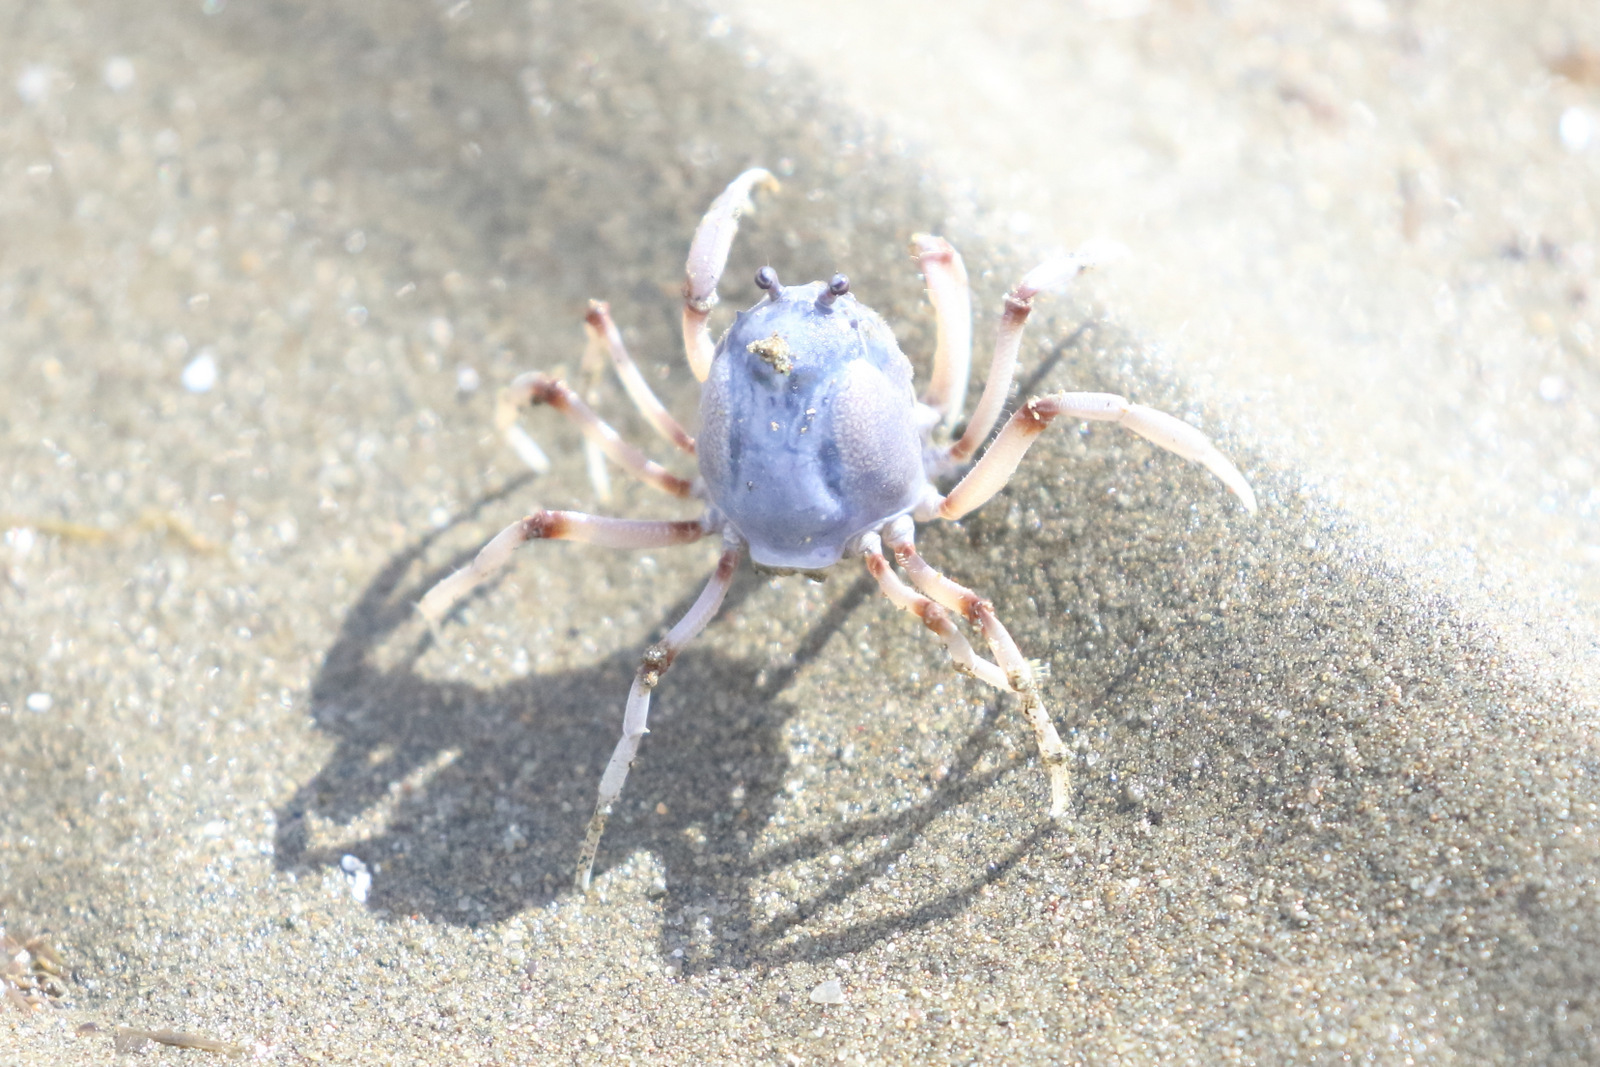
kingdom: Animalia
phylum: Arthropoda
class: Malacostraca
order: Decapoda
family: Mictyridae
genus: Mictyris
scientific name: Mictyris longicarpus
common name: Light-blue soldier crab
